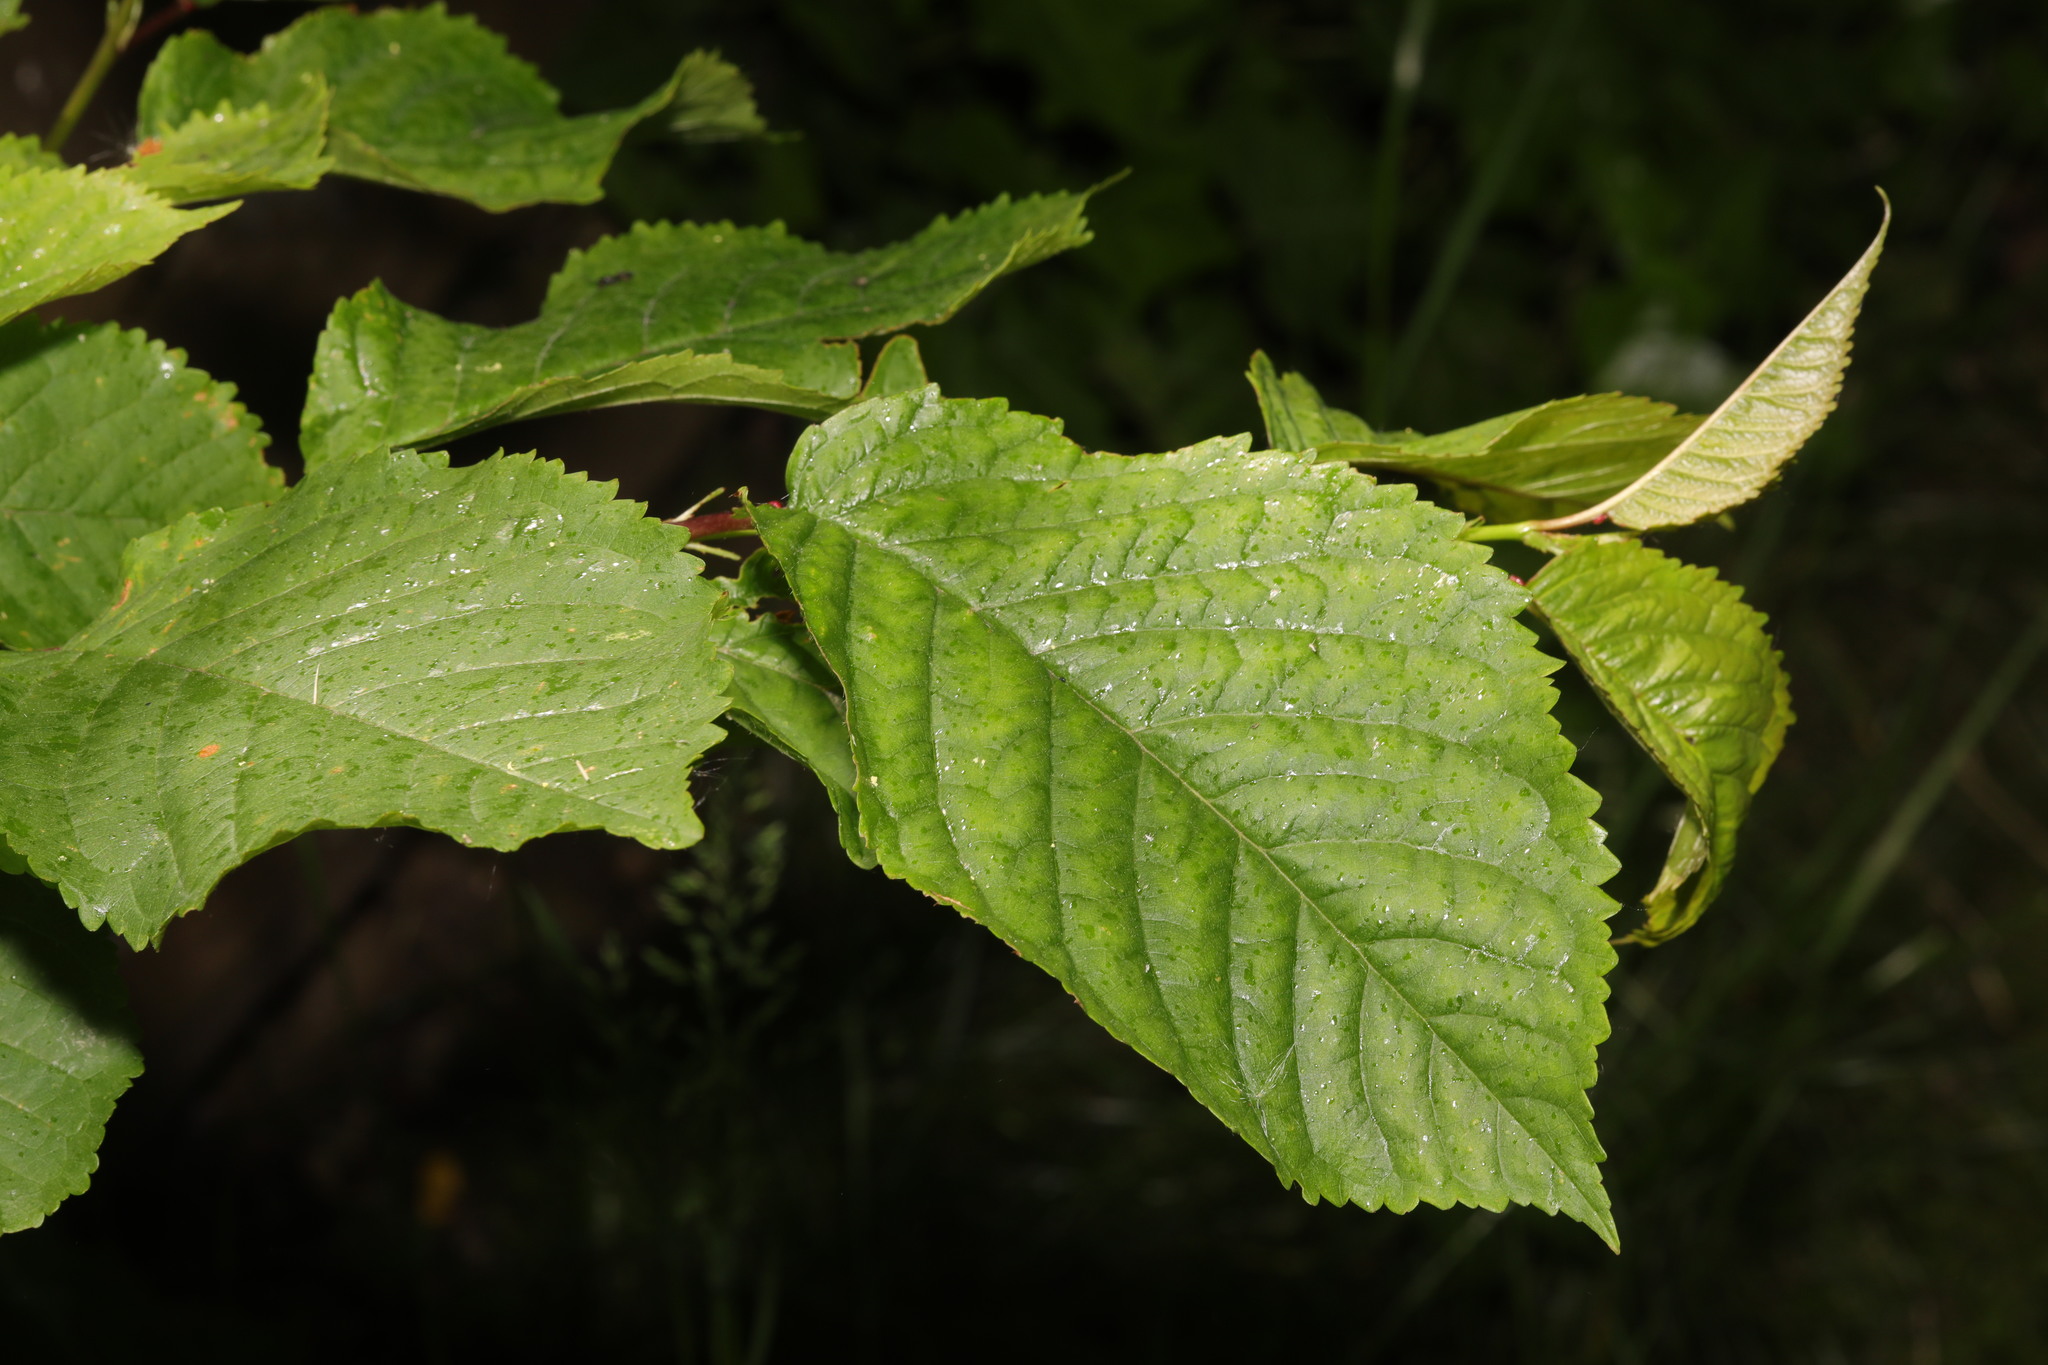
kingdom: Plantae
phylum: Tracheophyta
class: Magnoliopsida
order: Rosales
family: Rosaceae
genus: Prunus
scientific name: Prunus avium
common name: Sweet cherry
